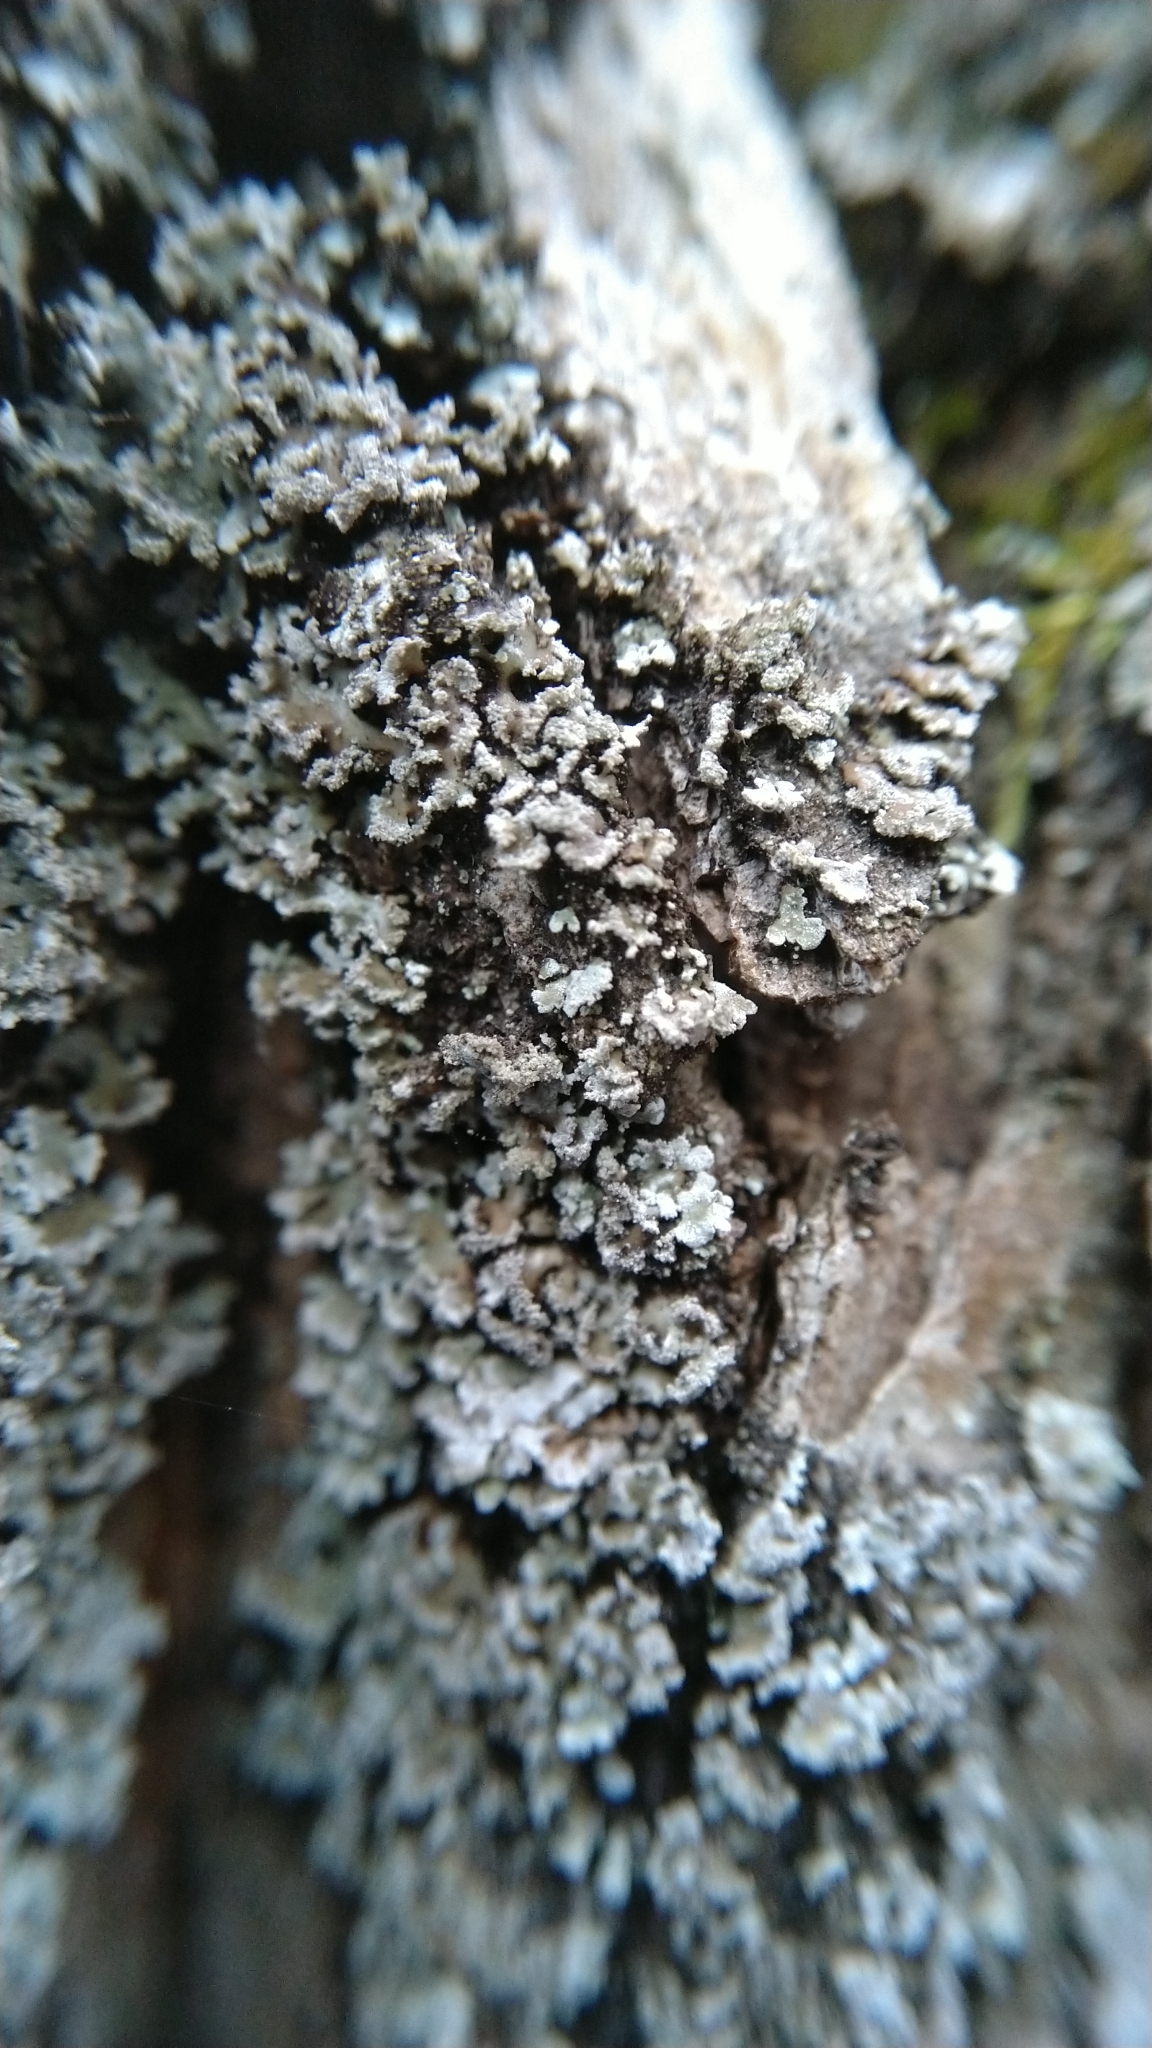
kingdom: Fungi
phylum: Ascomycota
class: Lecanoromycetes
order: Caliciales
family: Physciaceae
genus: Physconia
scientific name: Physconia perisidiosa
